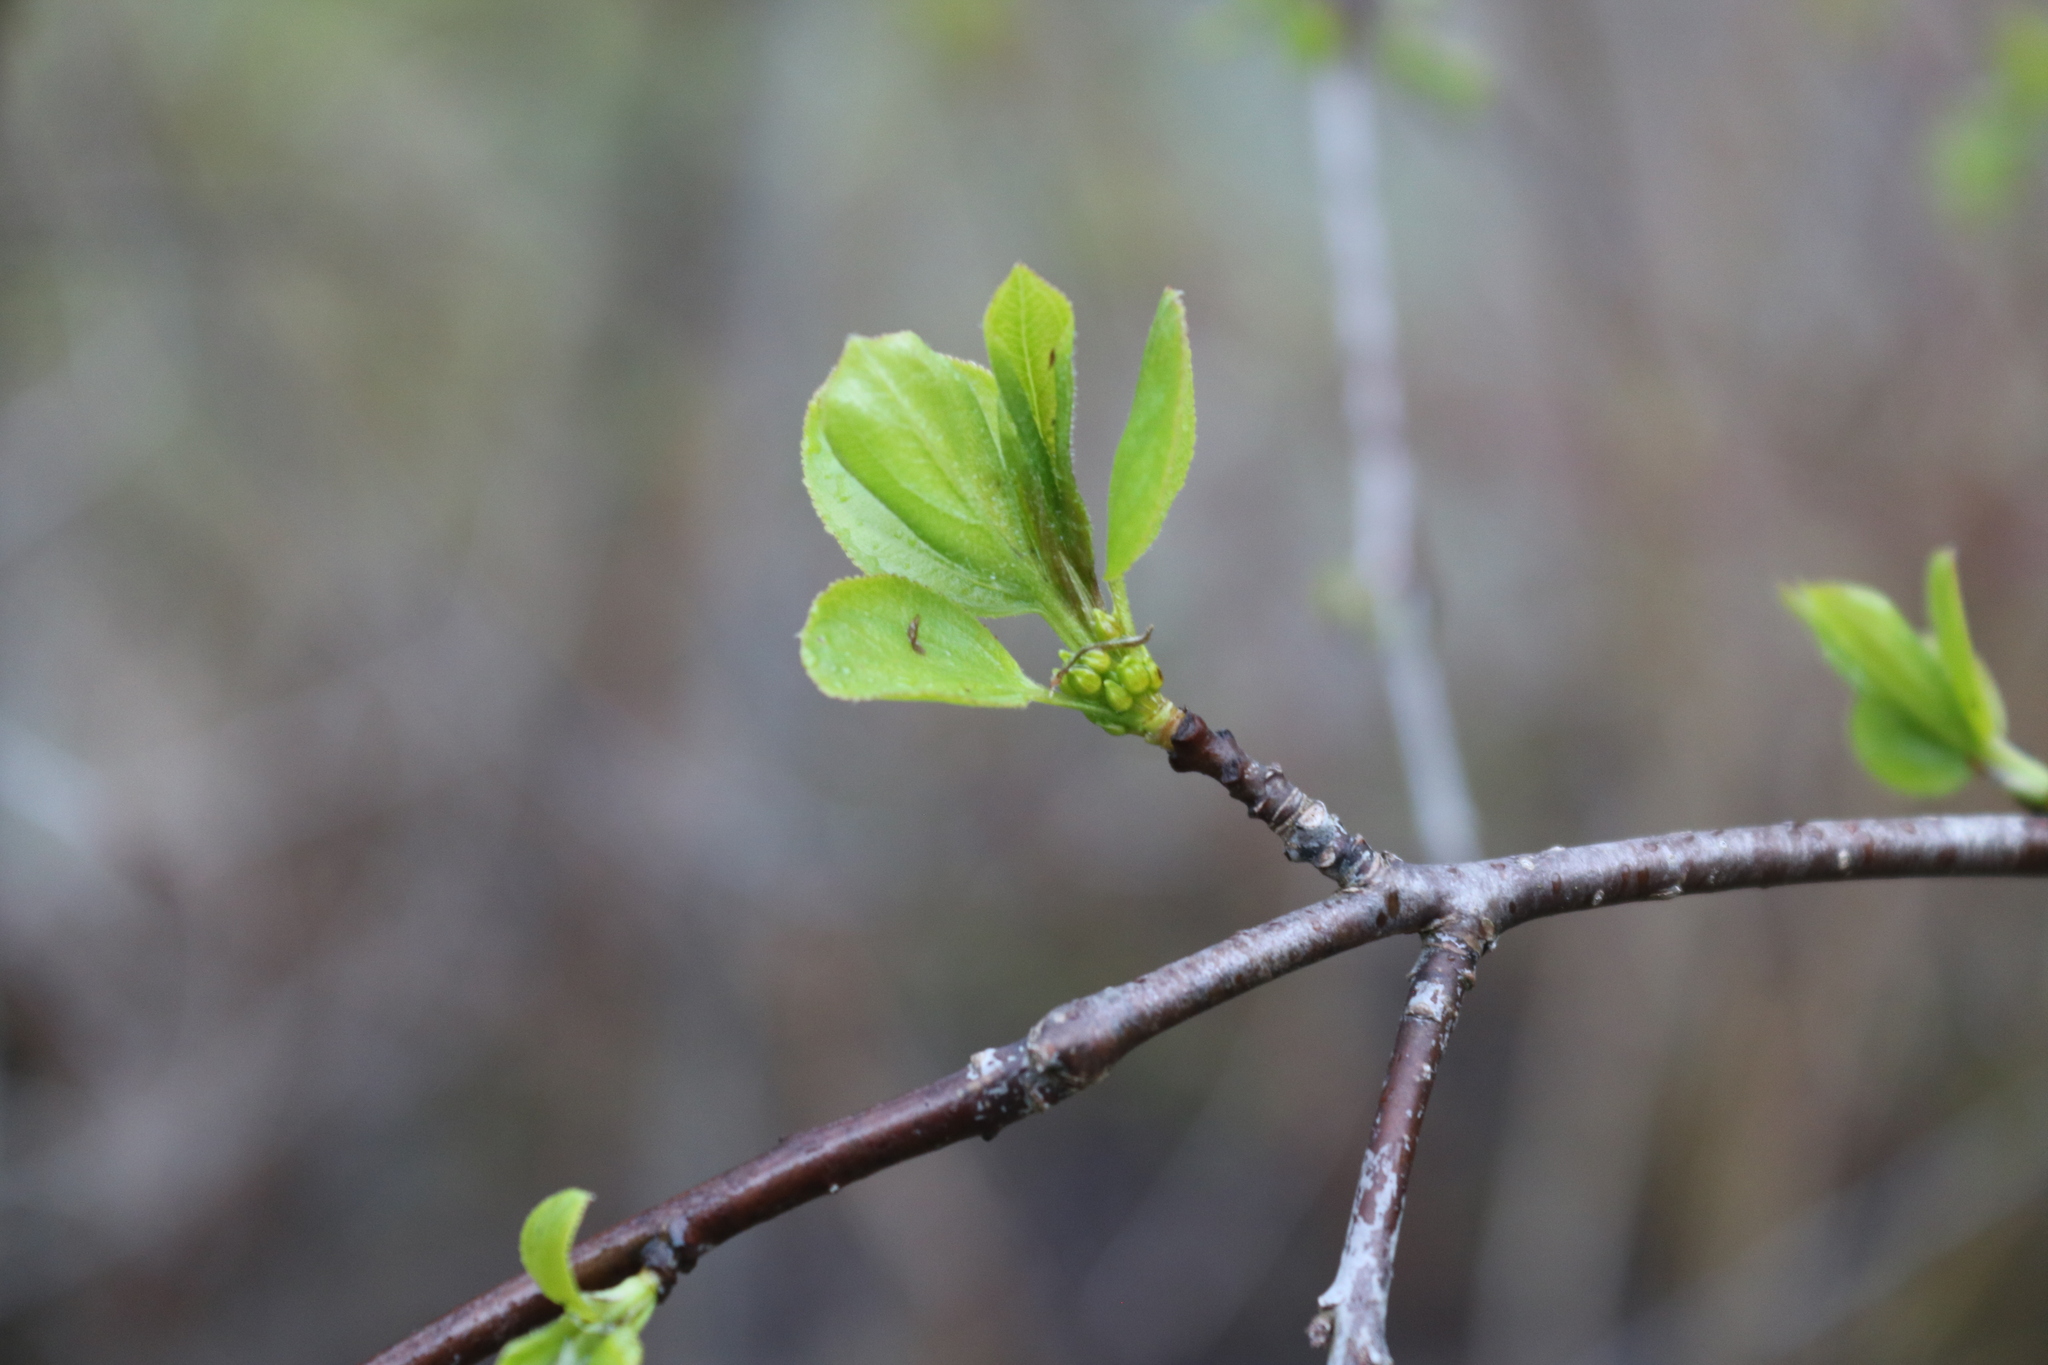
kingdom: Plantae
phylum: Tracheophyta
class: Magnoliopsida
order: Rosales
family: Rhamnaceae
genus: Rhamnus
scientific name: Rhamnus cathartica
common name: Common buckthorn
